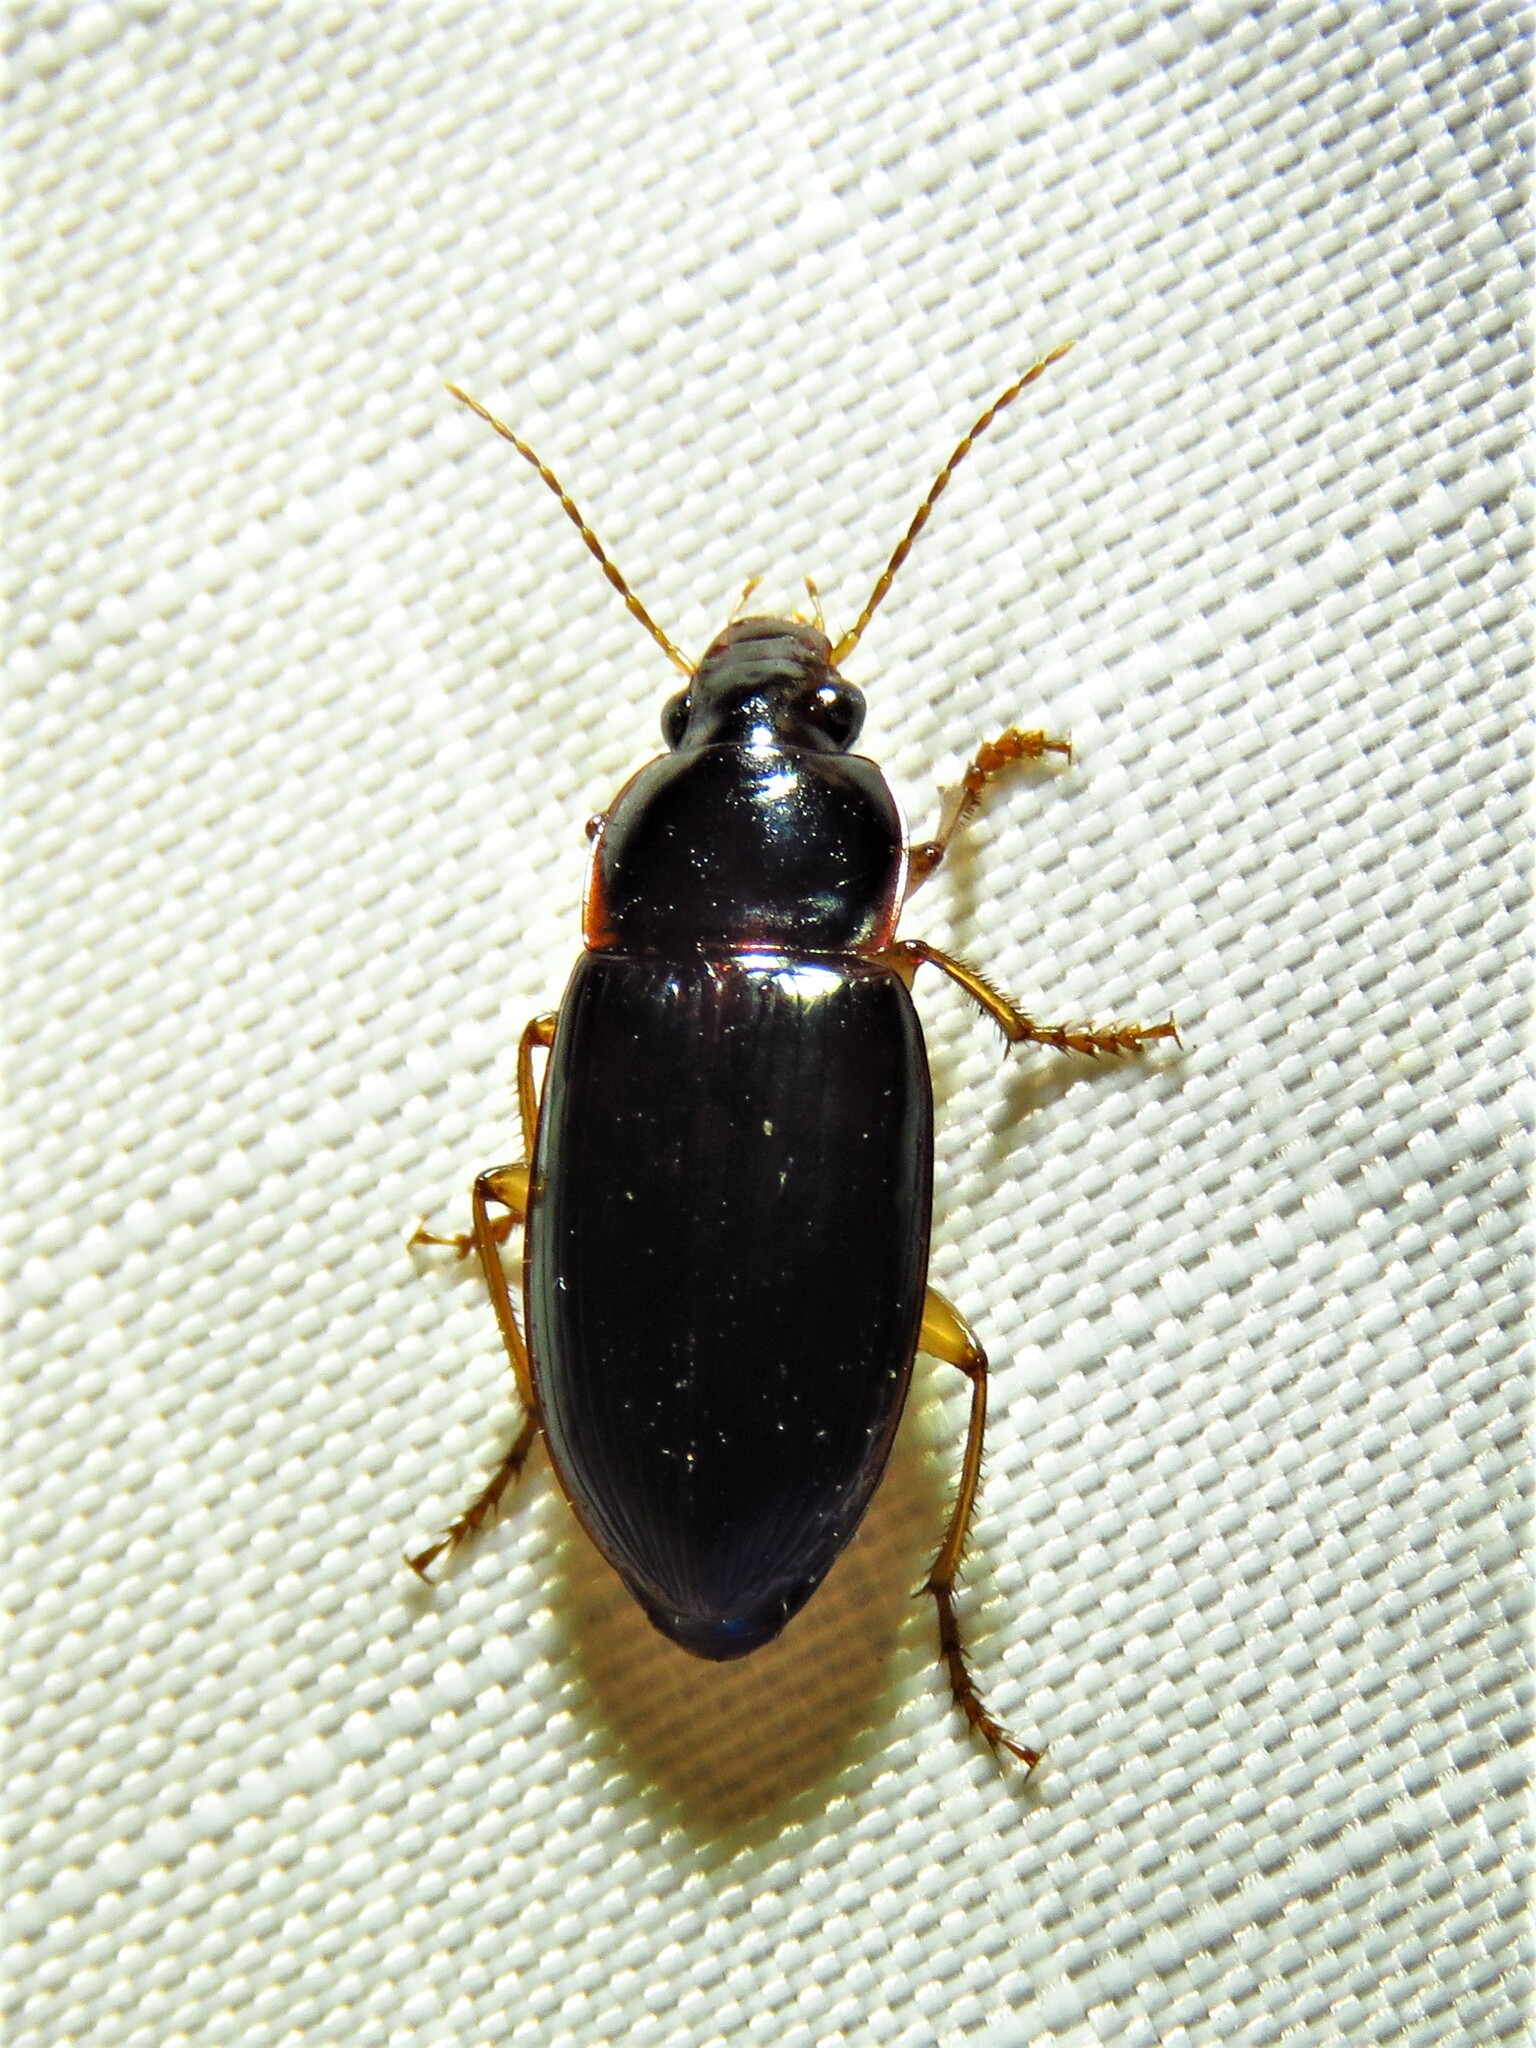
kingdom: Animalia
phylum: Arthropoda
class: Insecta
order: Coleoptera
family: Carabidae
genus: Notiobia
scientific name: Notiobia terminata
